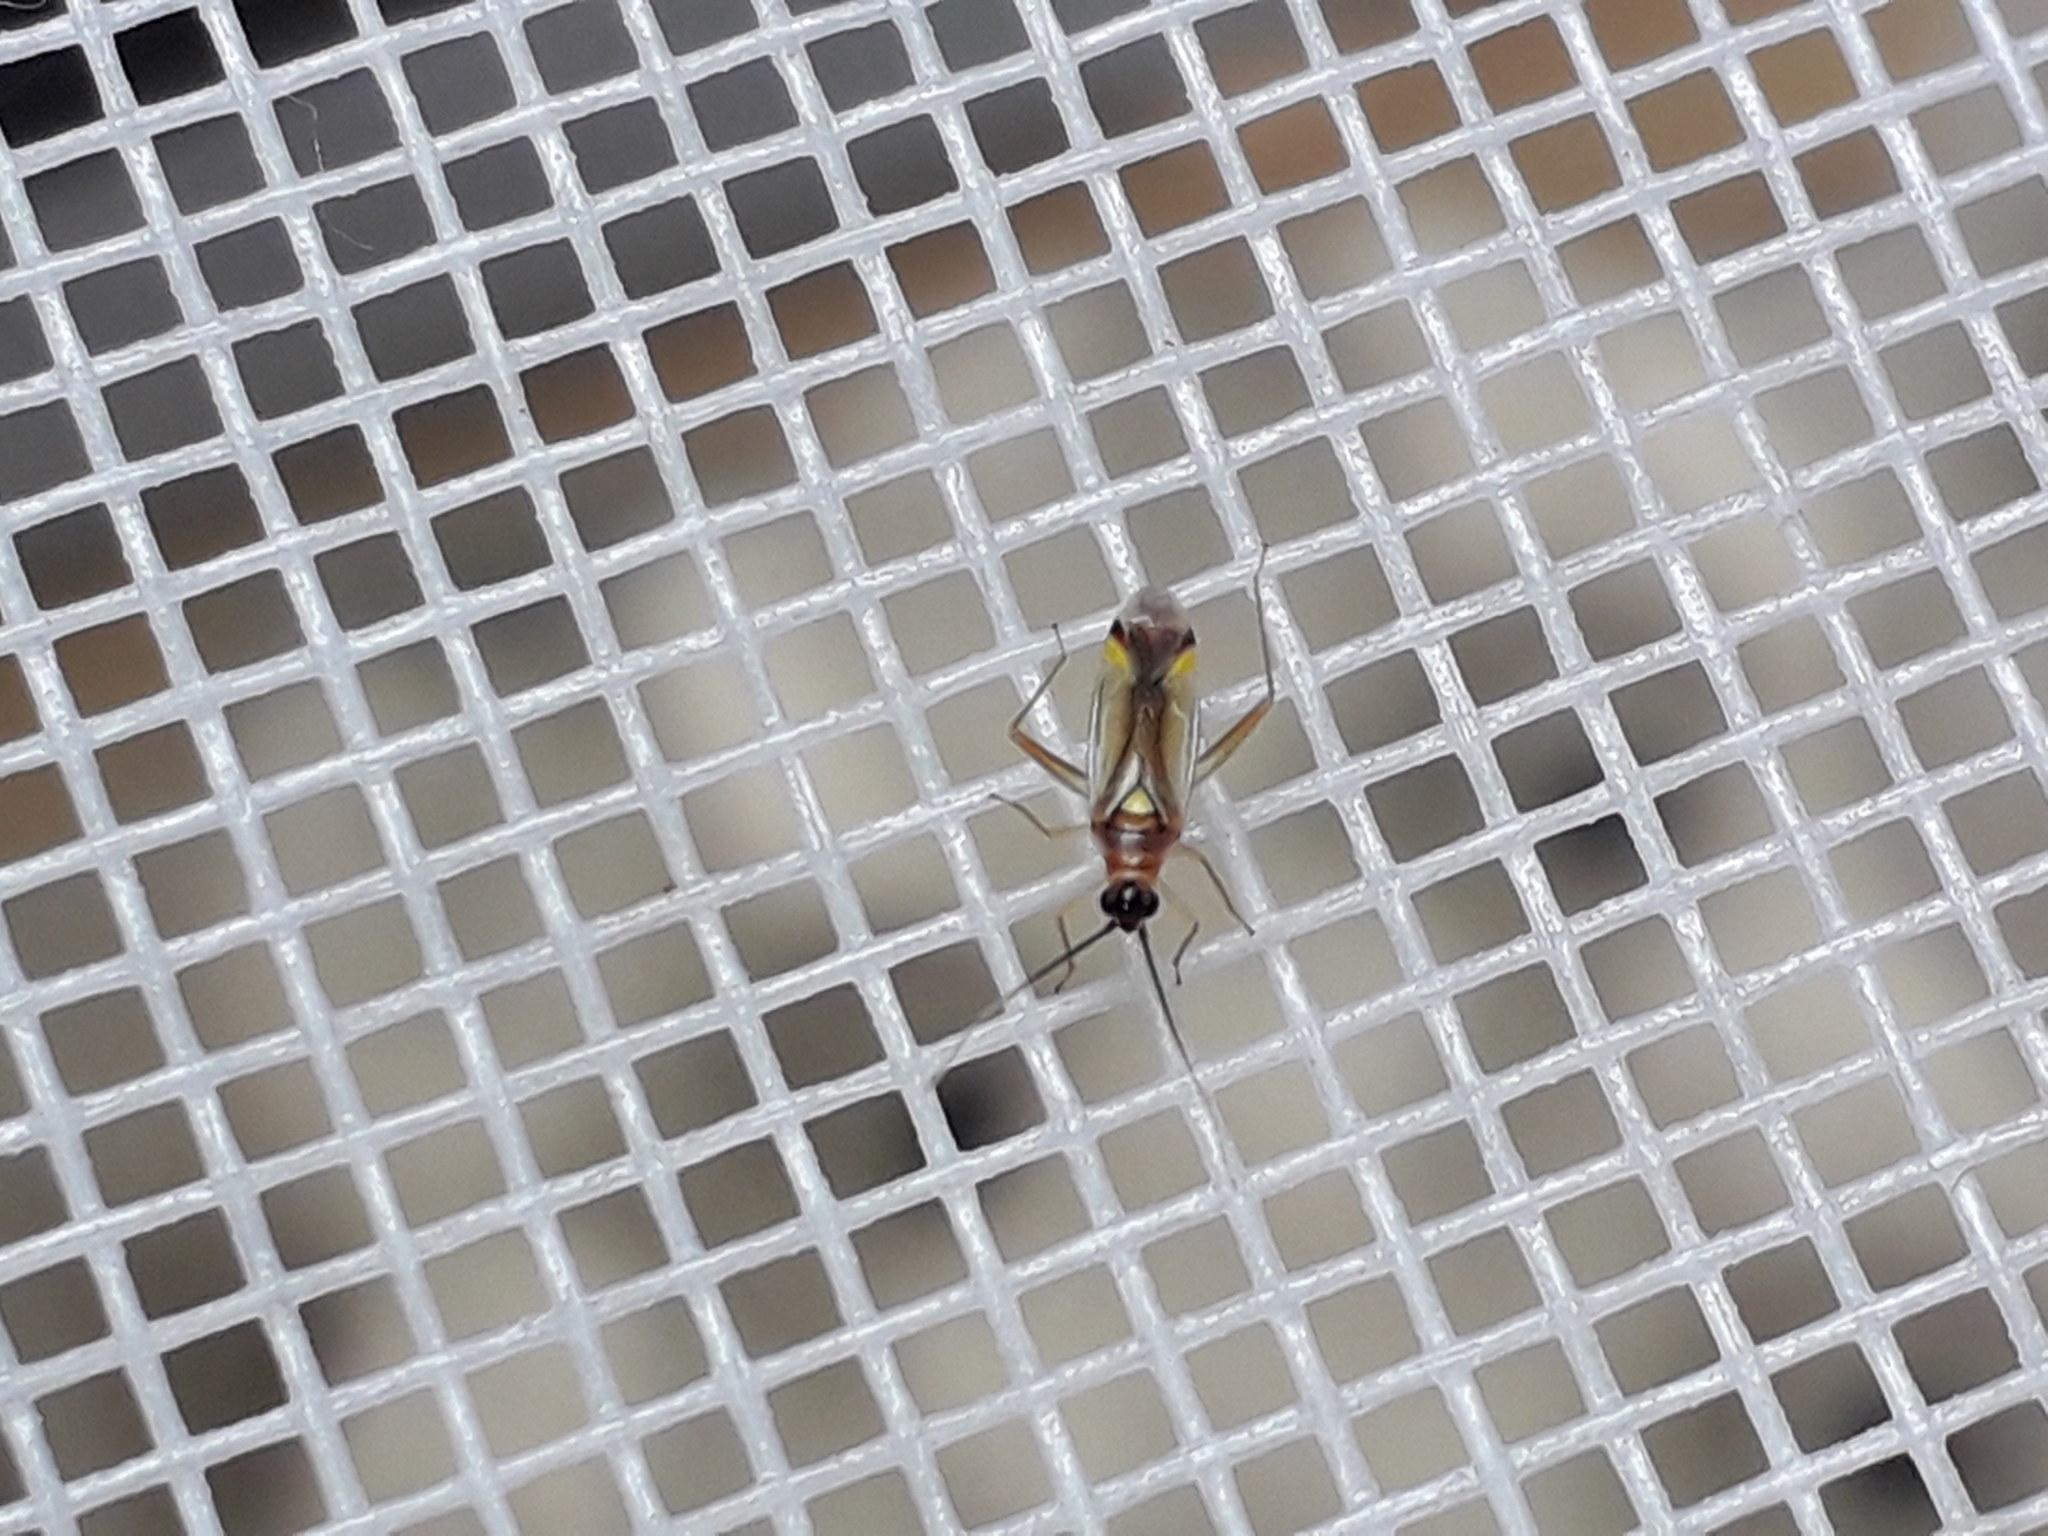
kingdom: Animalia
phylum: Arthropoda
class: Insecta
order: Hemiptera
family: Miridae
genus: Campyloneura
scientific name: Campyloneura virgula
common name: Predatory bug
